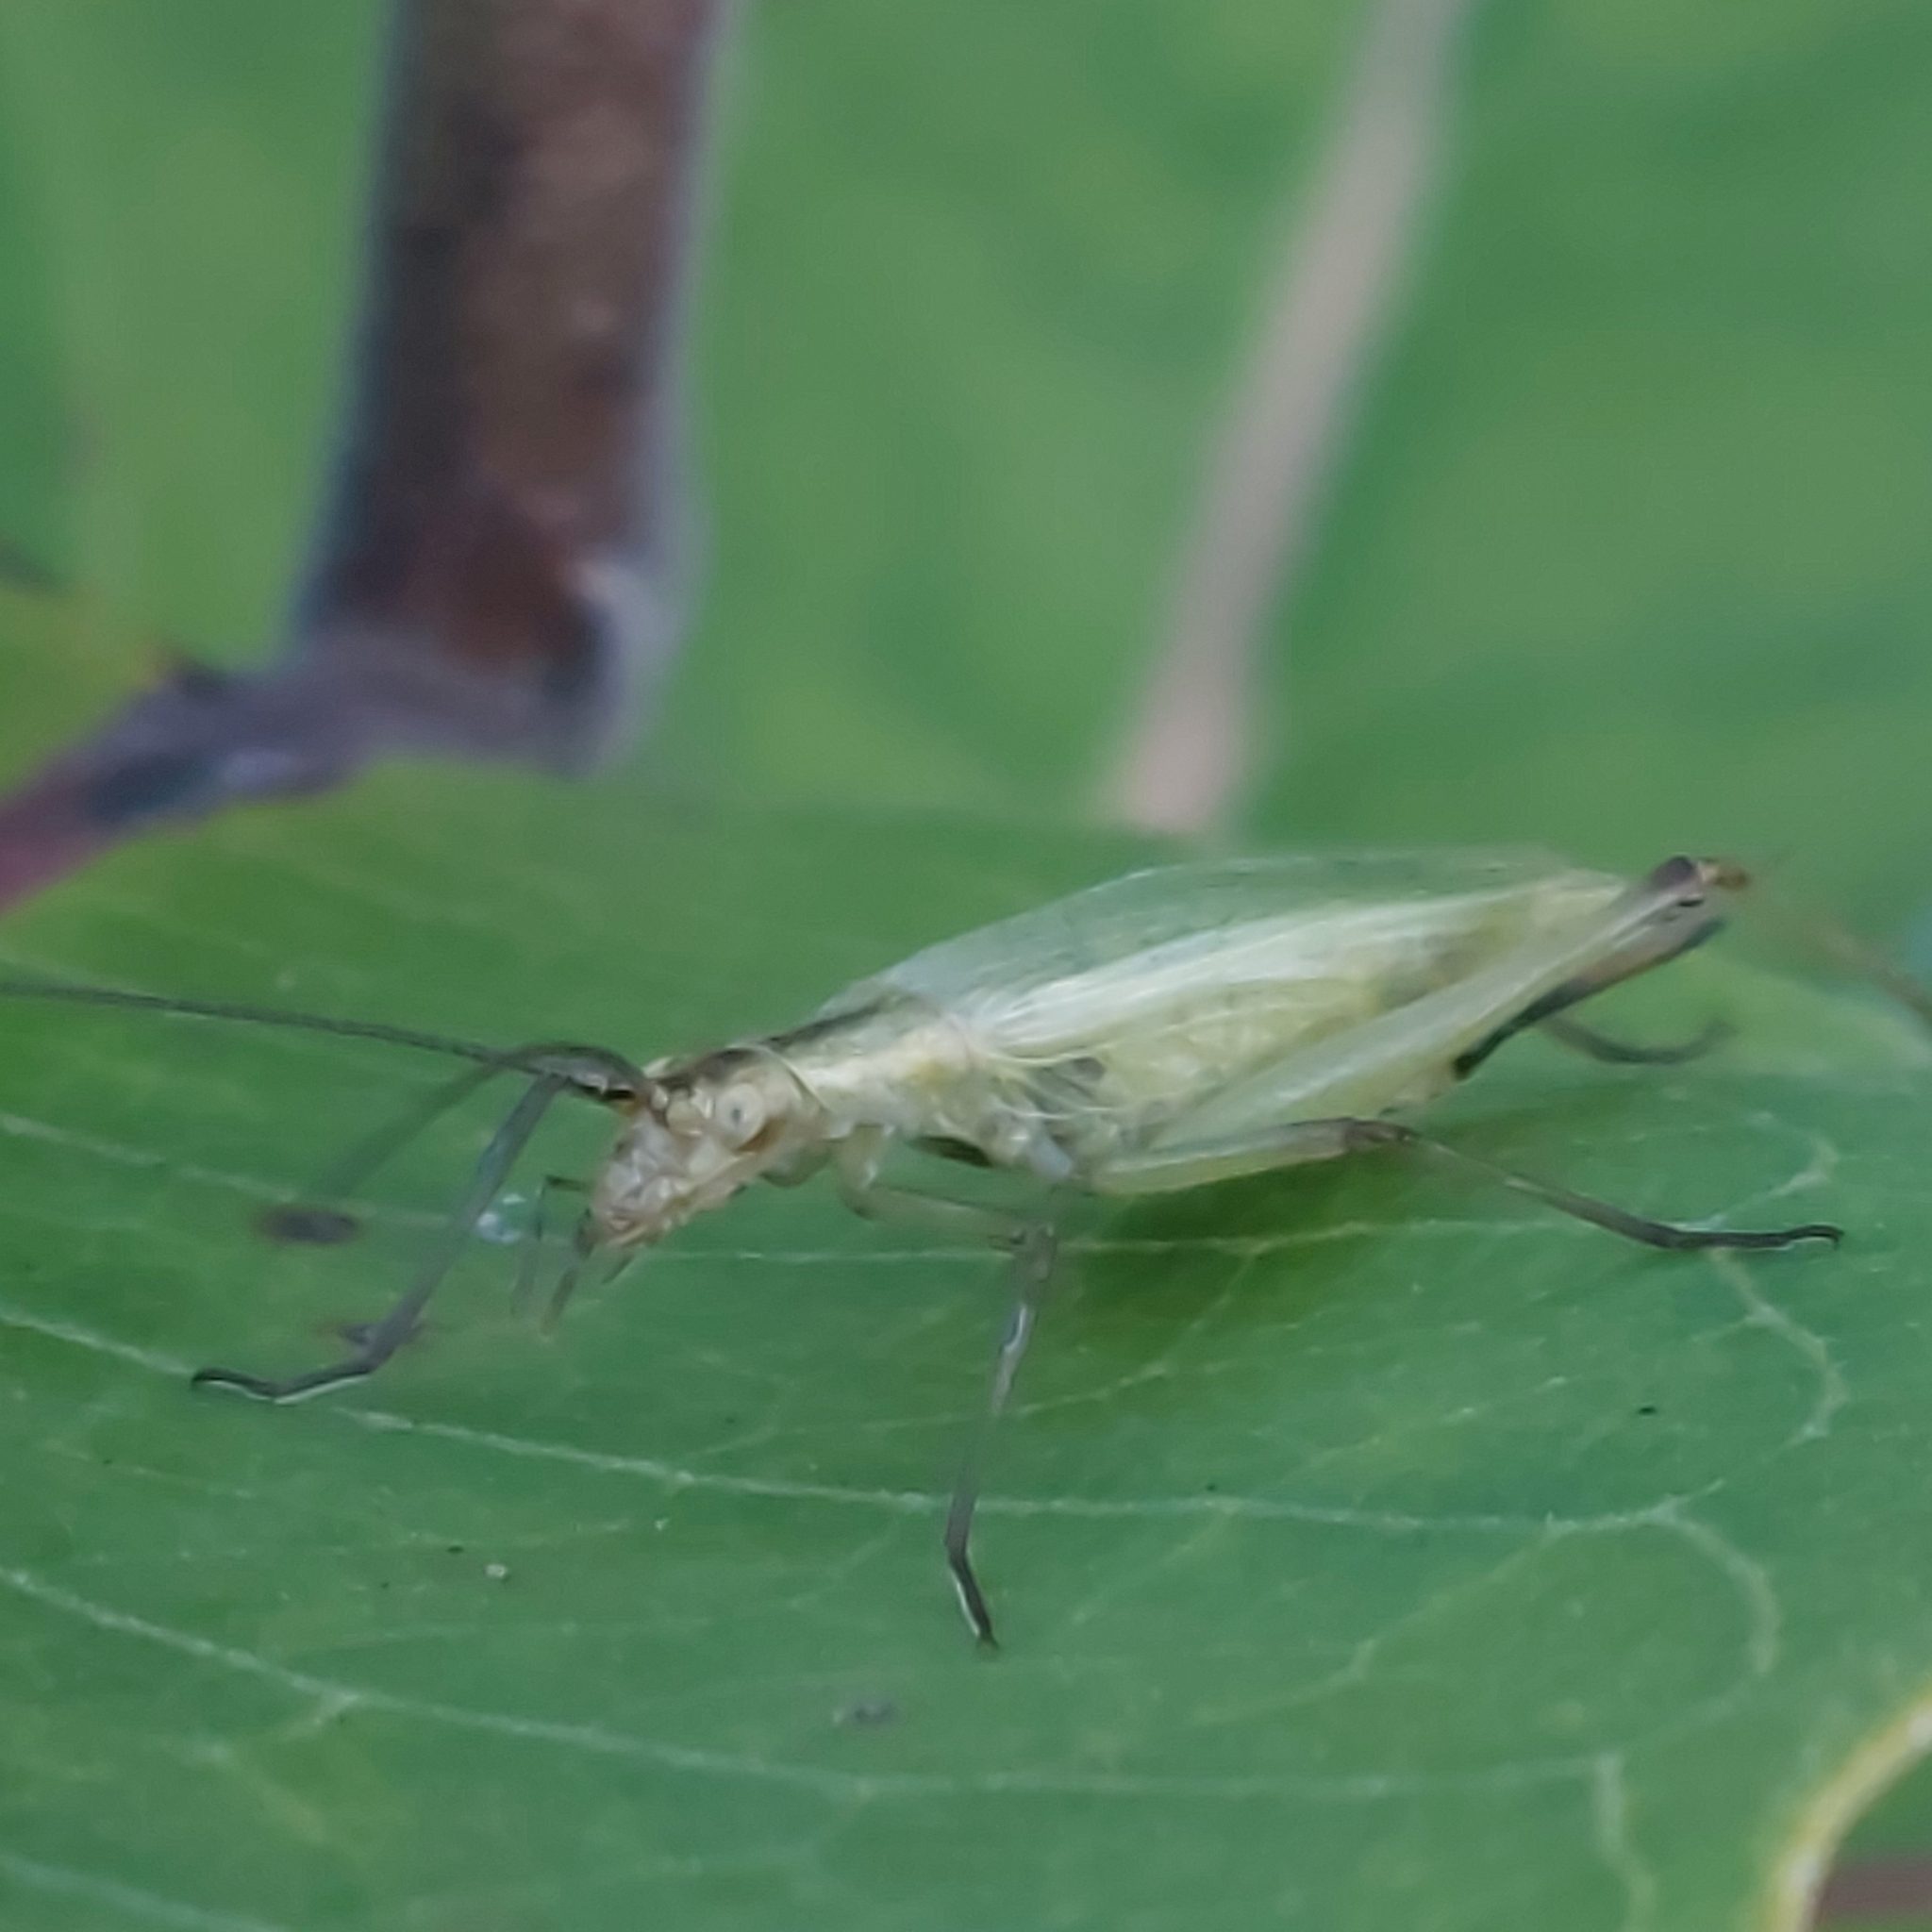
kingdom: Animalia
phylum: Arthropoda
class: Insecta
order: Orthoptera
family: Gryllidae
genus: Oecanthus
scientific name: Oecanthus nigricornis
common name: Black-horned tree cricket
